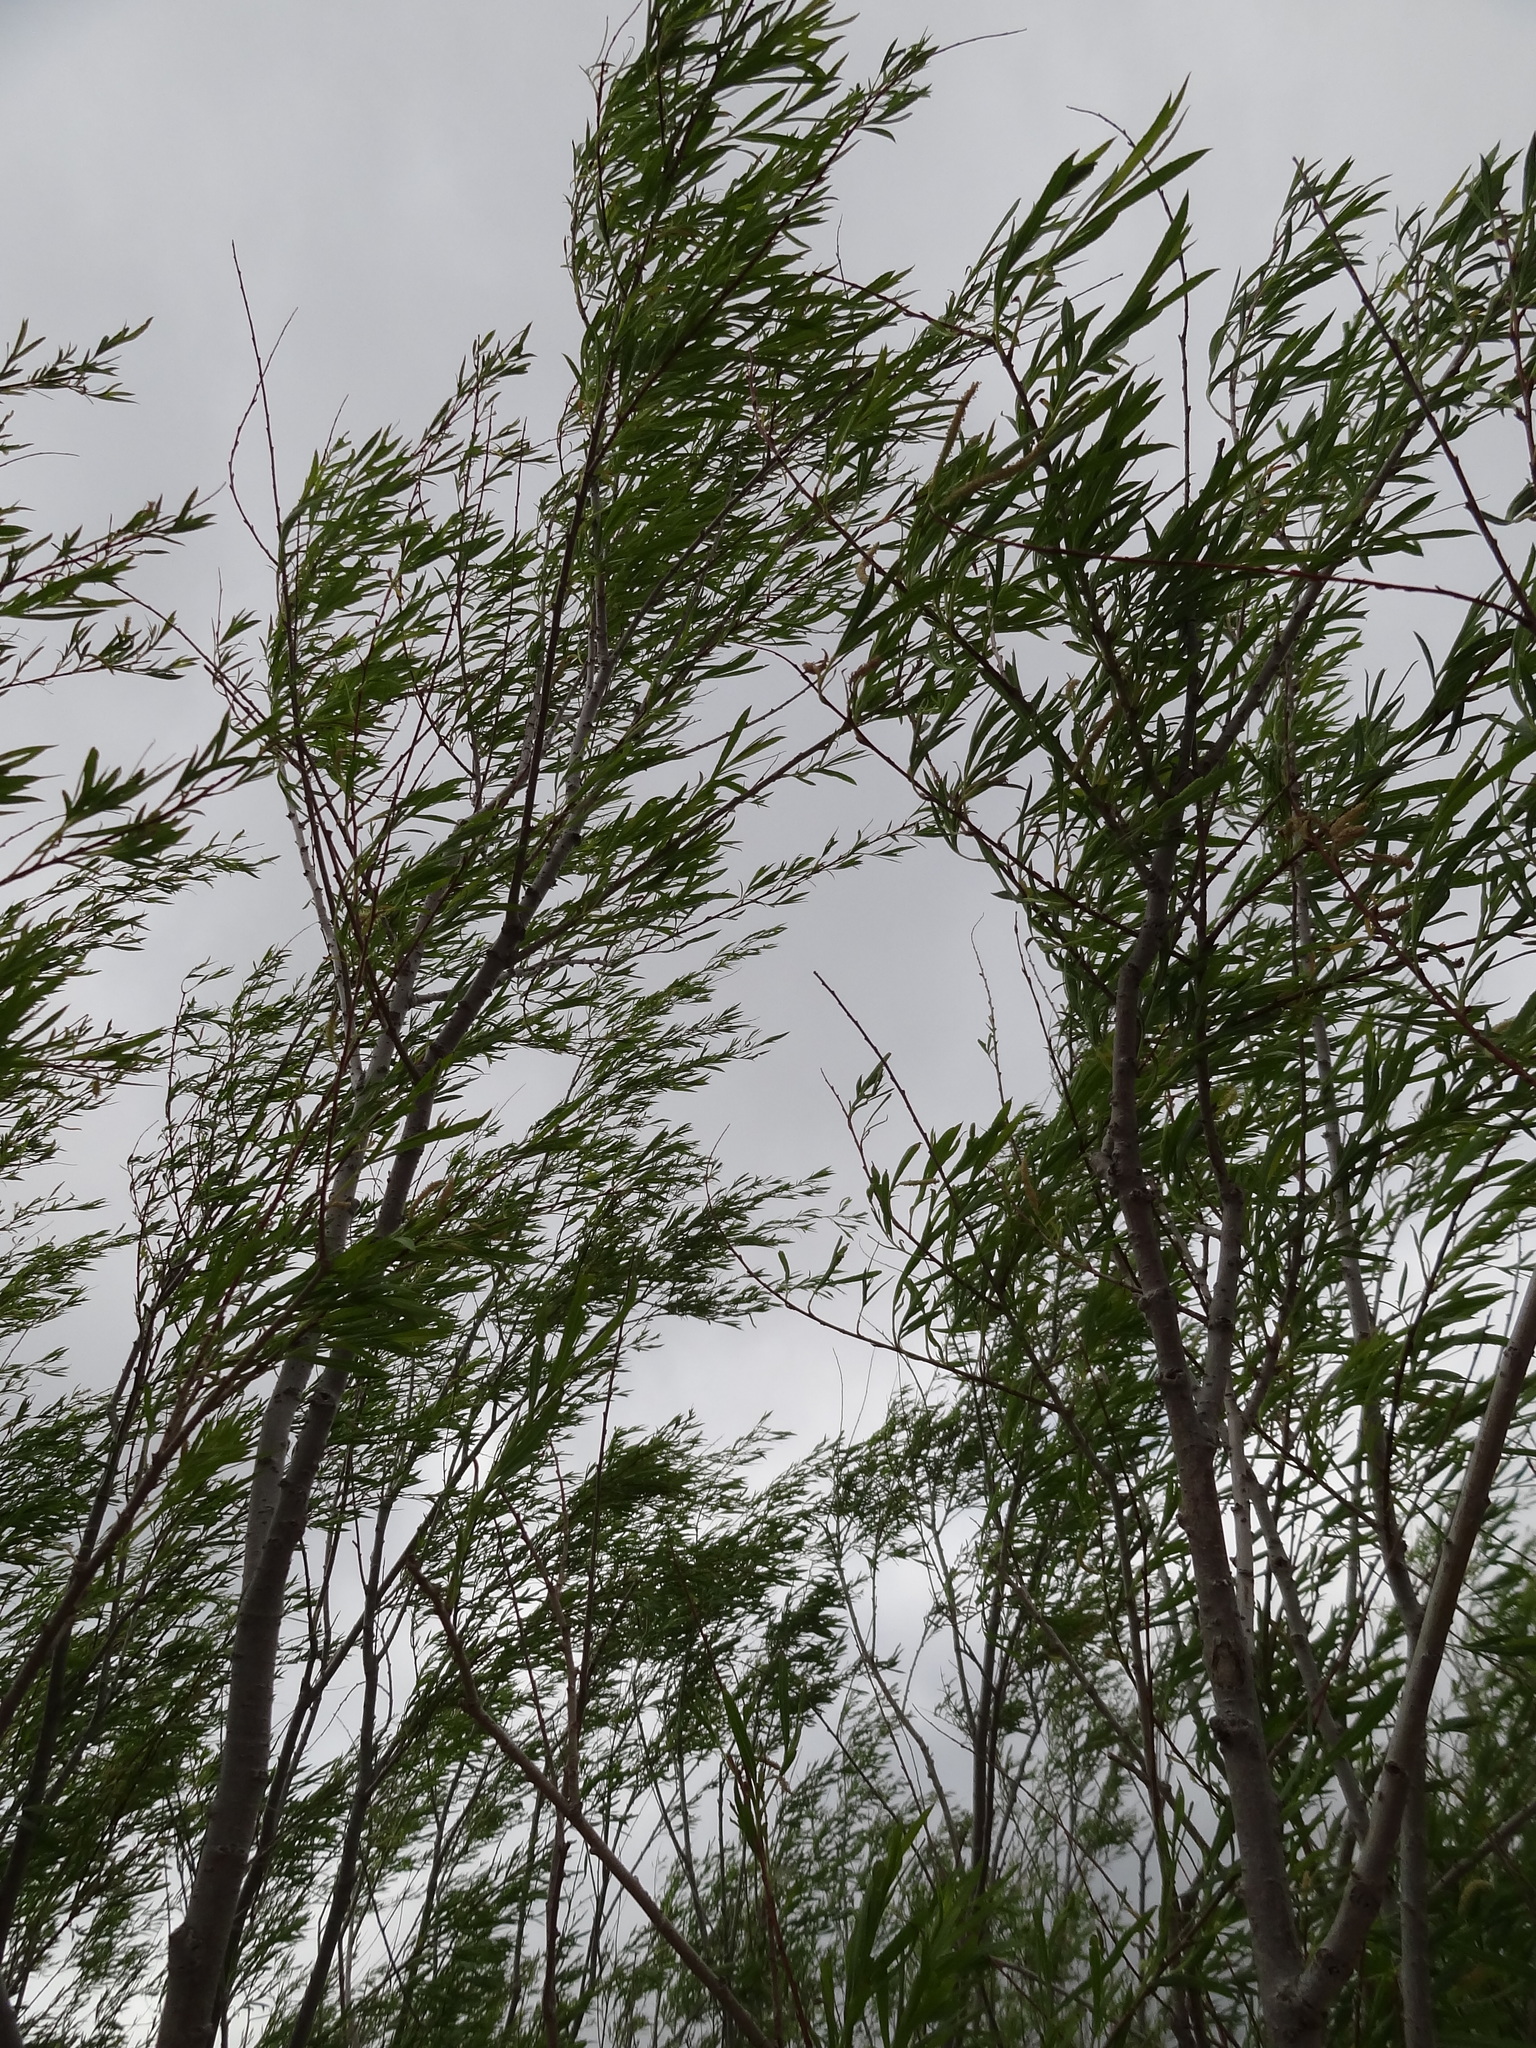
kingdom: Plantae
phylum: Tracheophyta
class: Magnoliopsida
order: Malpighiales
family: Salicaceae
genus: Salix
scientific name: Salix interior
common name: Sandbar willow
